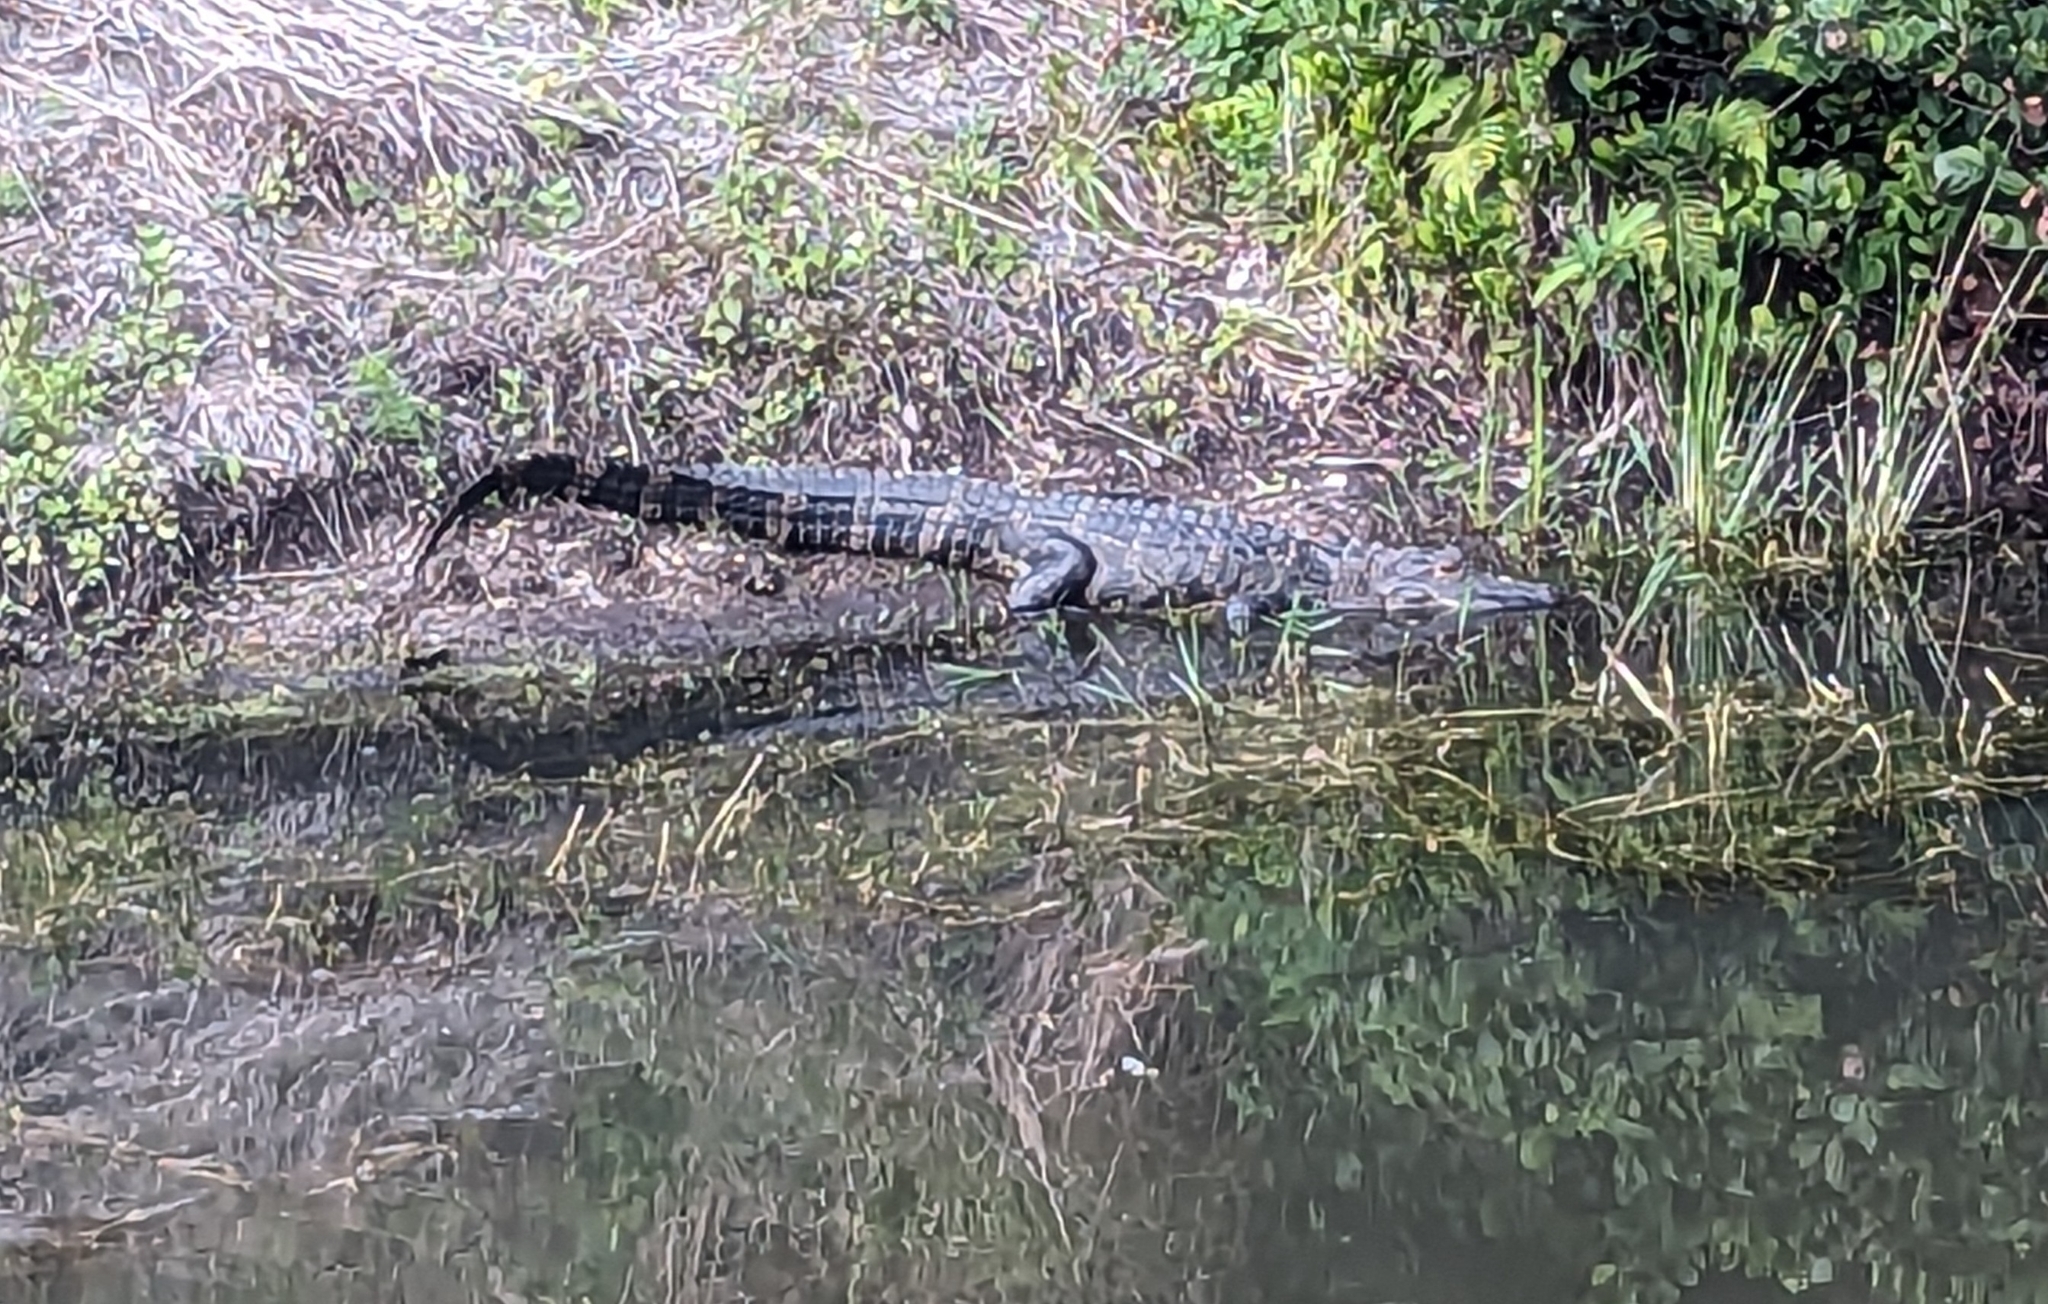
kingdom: Animalia
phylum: Chordata
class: Crocodylia
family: Alligatoridae
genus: Alligator
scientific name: Alligator mississippiensis
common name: American alligator
